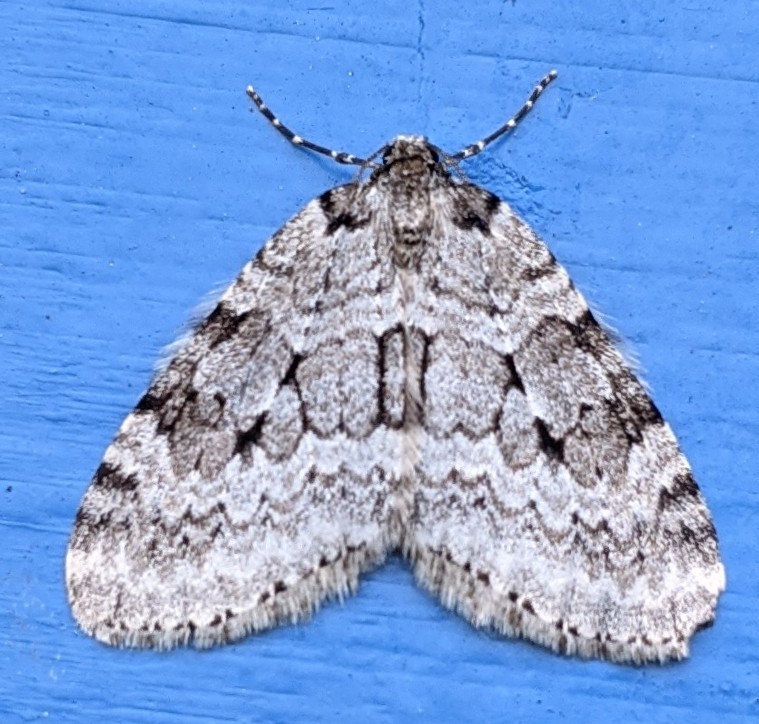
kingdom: Animalia
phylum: Arthropoda
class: Insecta
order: Lepidoptera
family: Geometridae
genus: Epirrita
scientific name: Epirrita autumnata
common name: Autumnal moth
